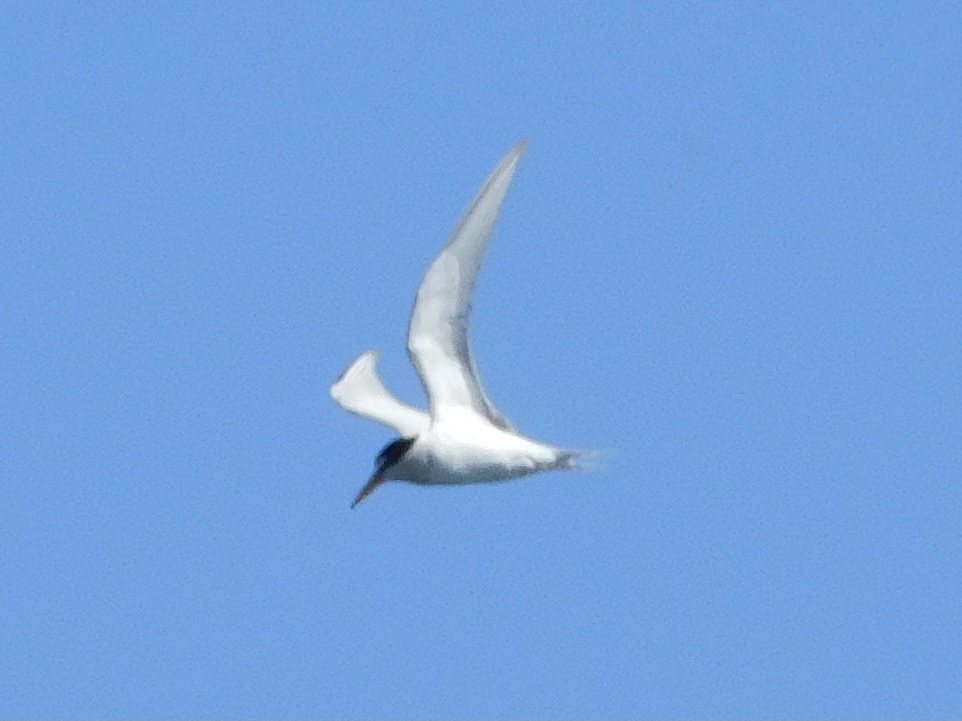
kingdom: Animalia
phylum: Chordata
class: Aves
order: Charadriiformes
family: Laridae
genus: Sternula
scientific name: Sternula antillarum
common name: Least tern
